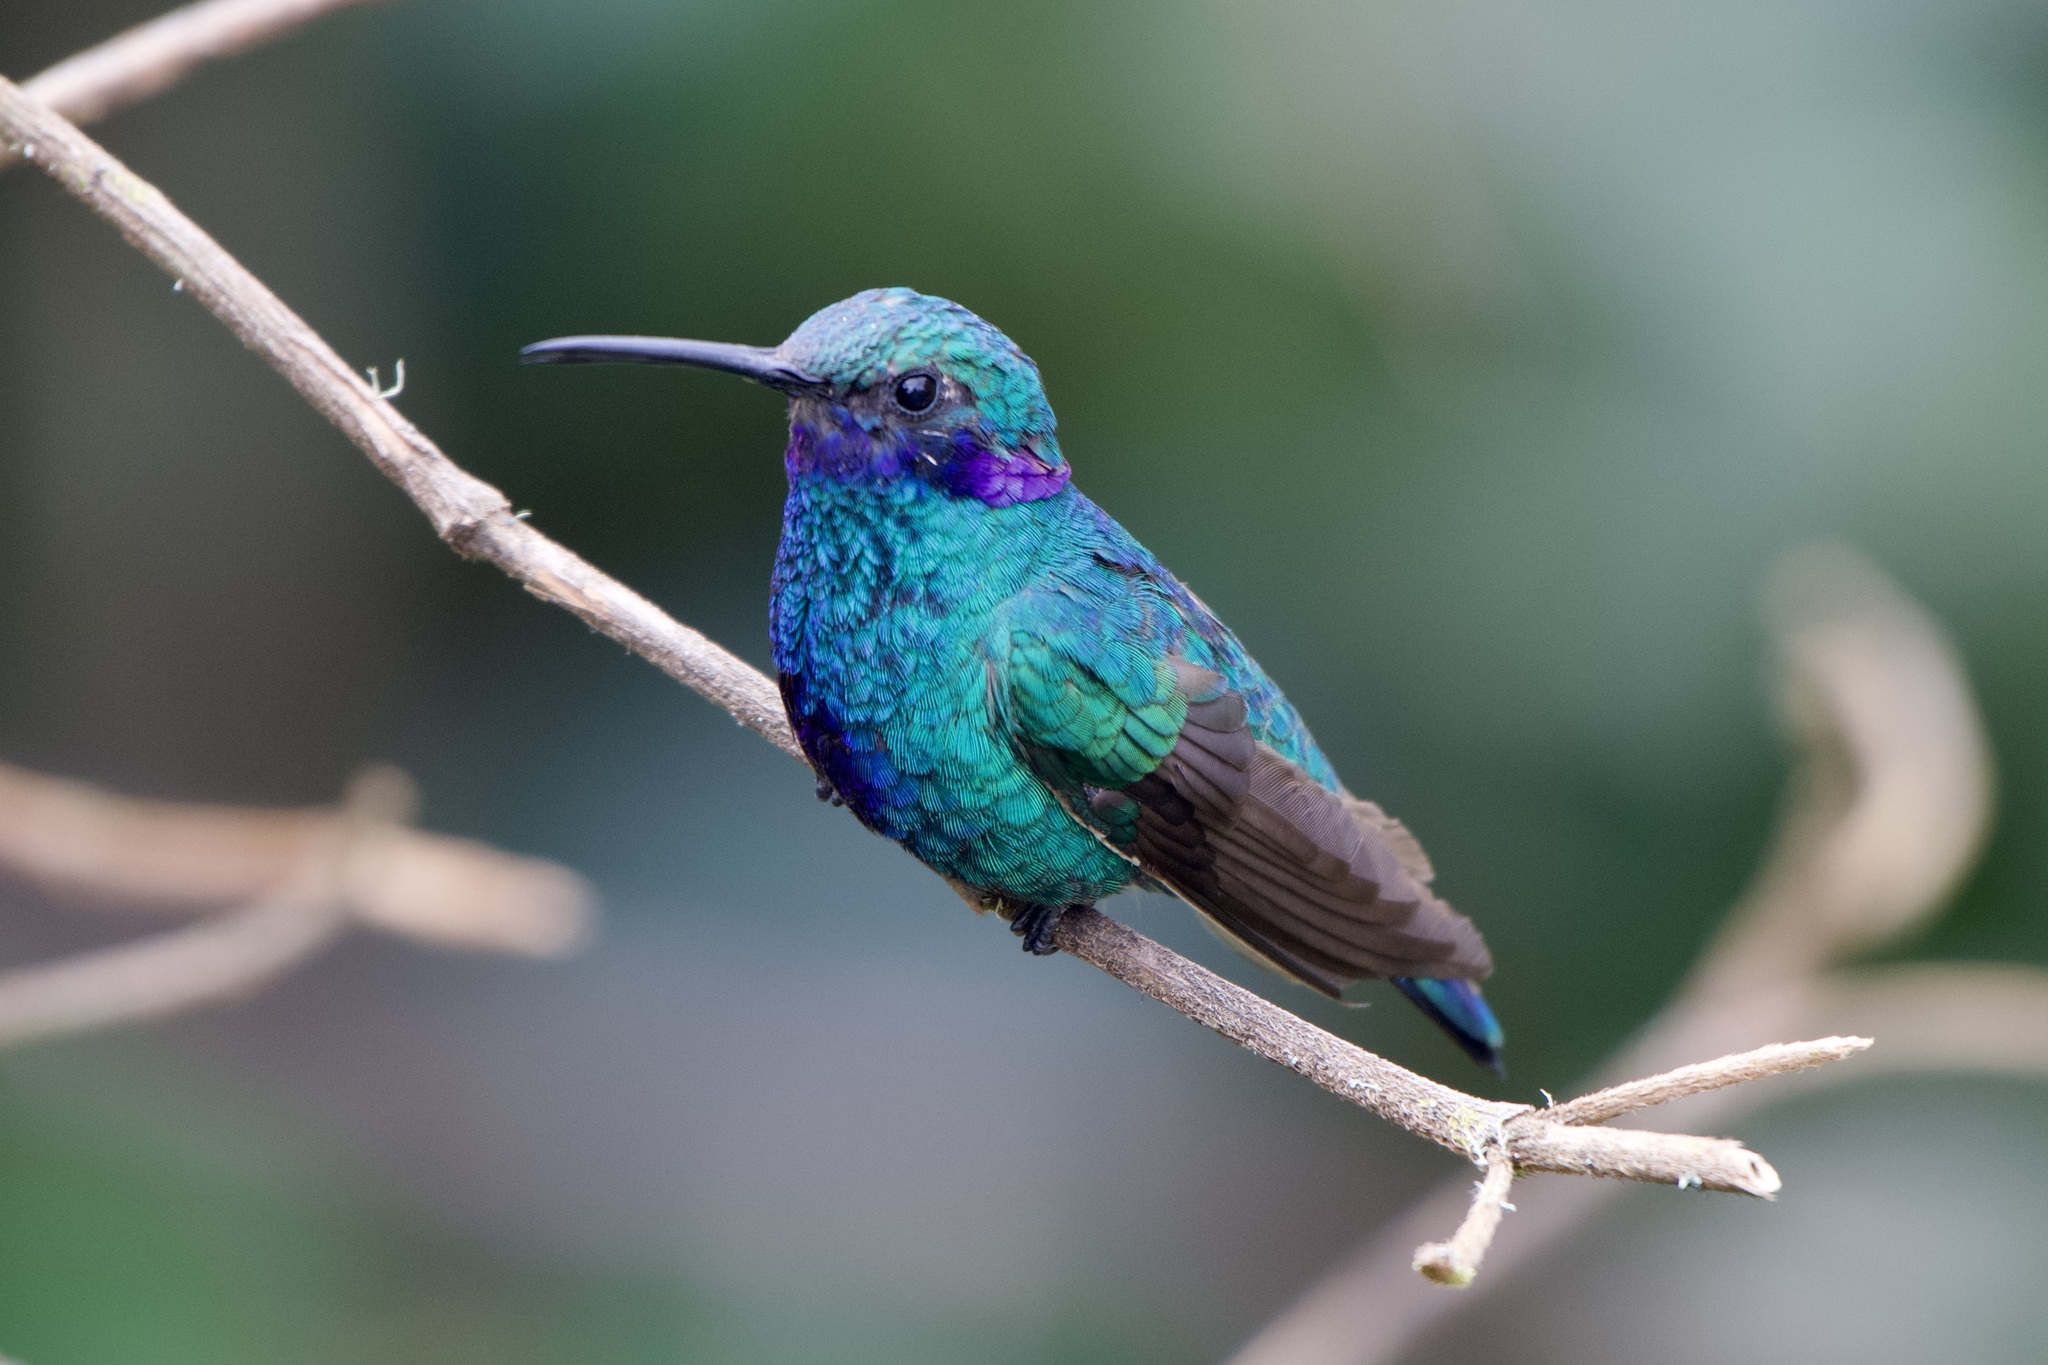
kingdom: Animalia
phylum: Chordata
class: Aves
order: Apodiformes
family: Trochilidae
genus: Colibri
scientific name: Colibri coruscans
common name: Sparkling violetear
